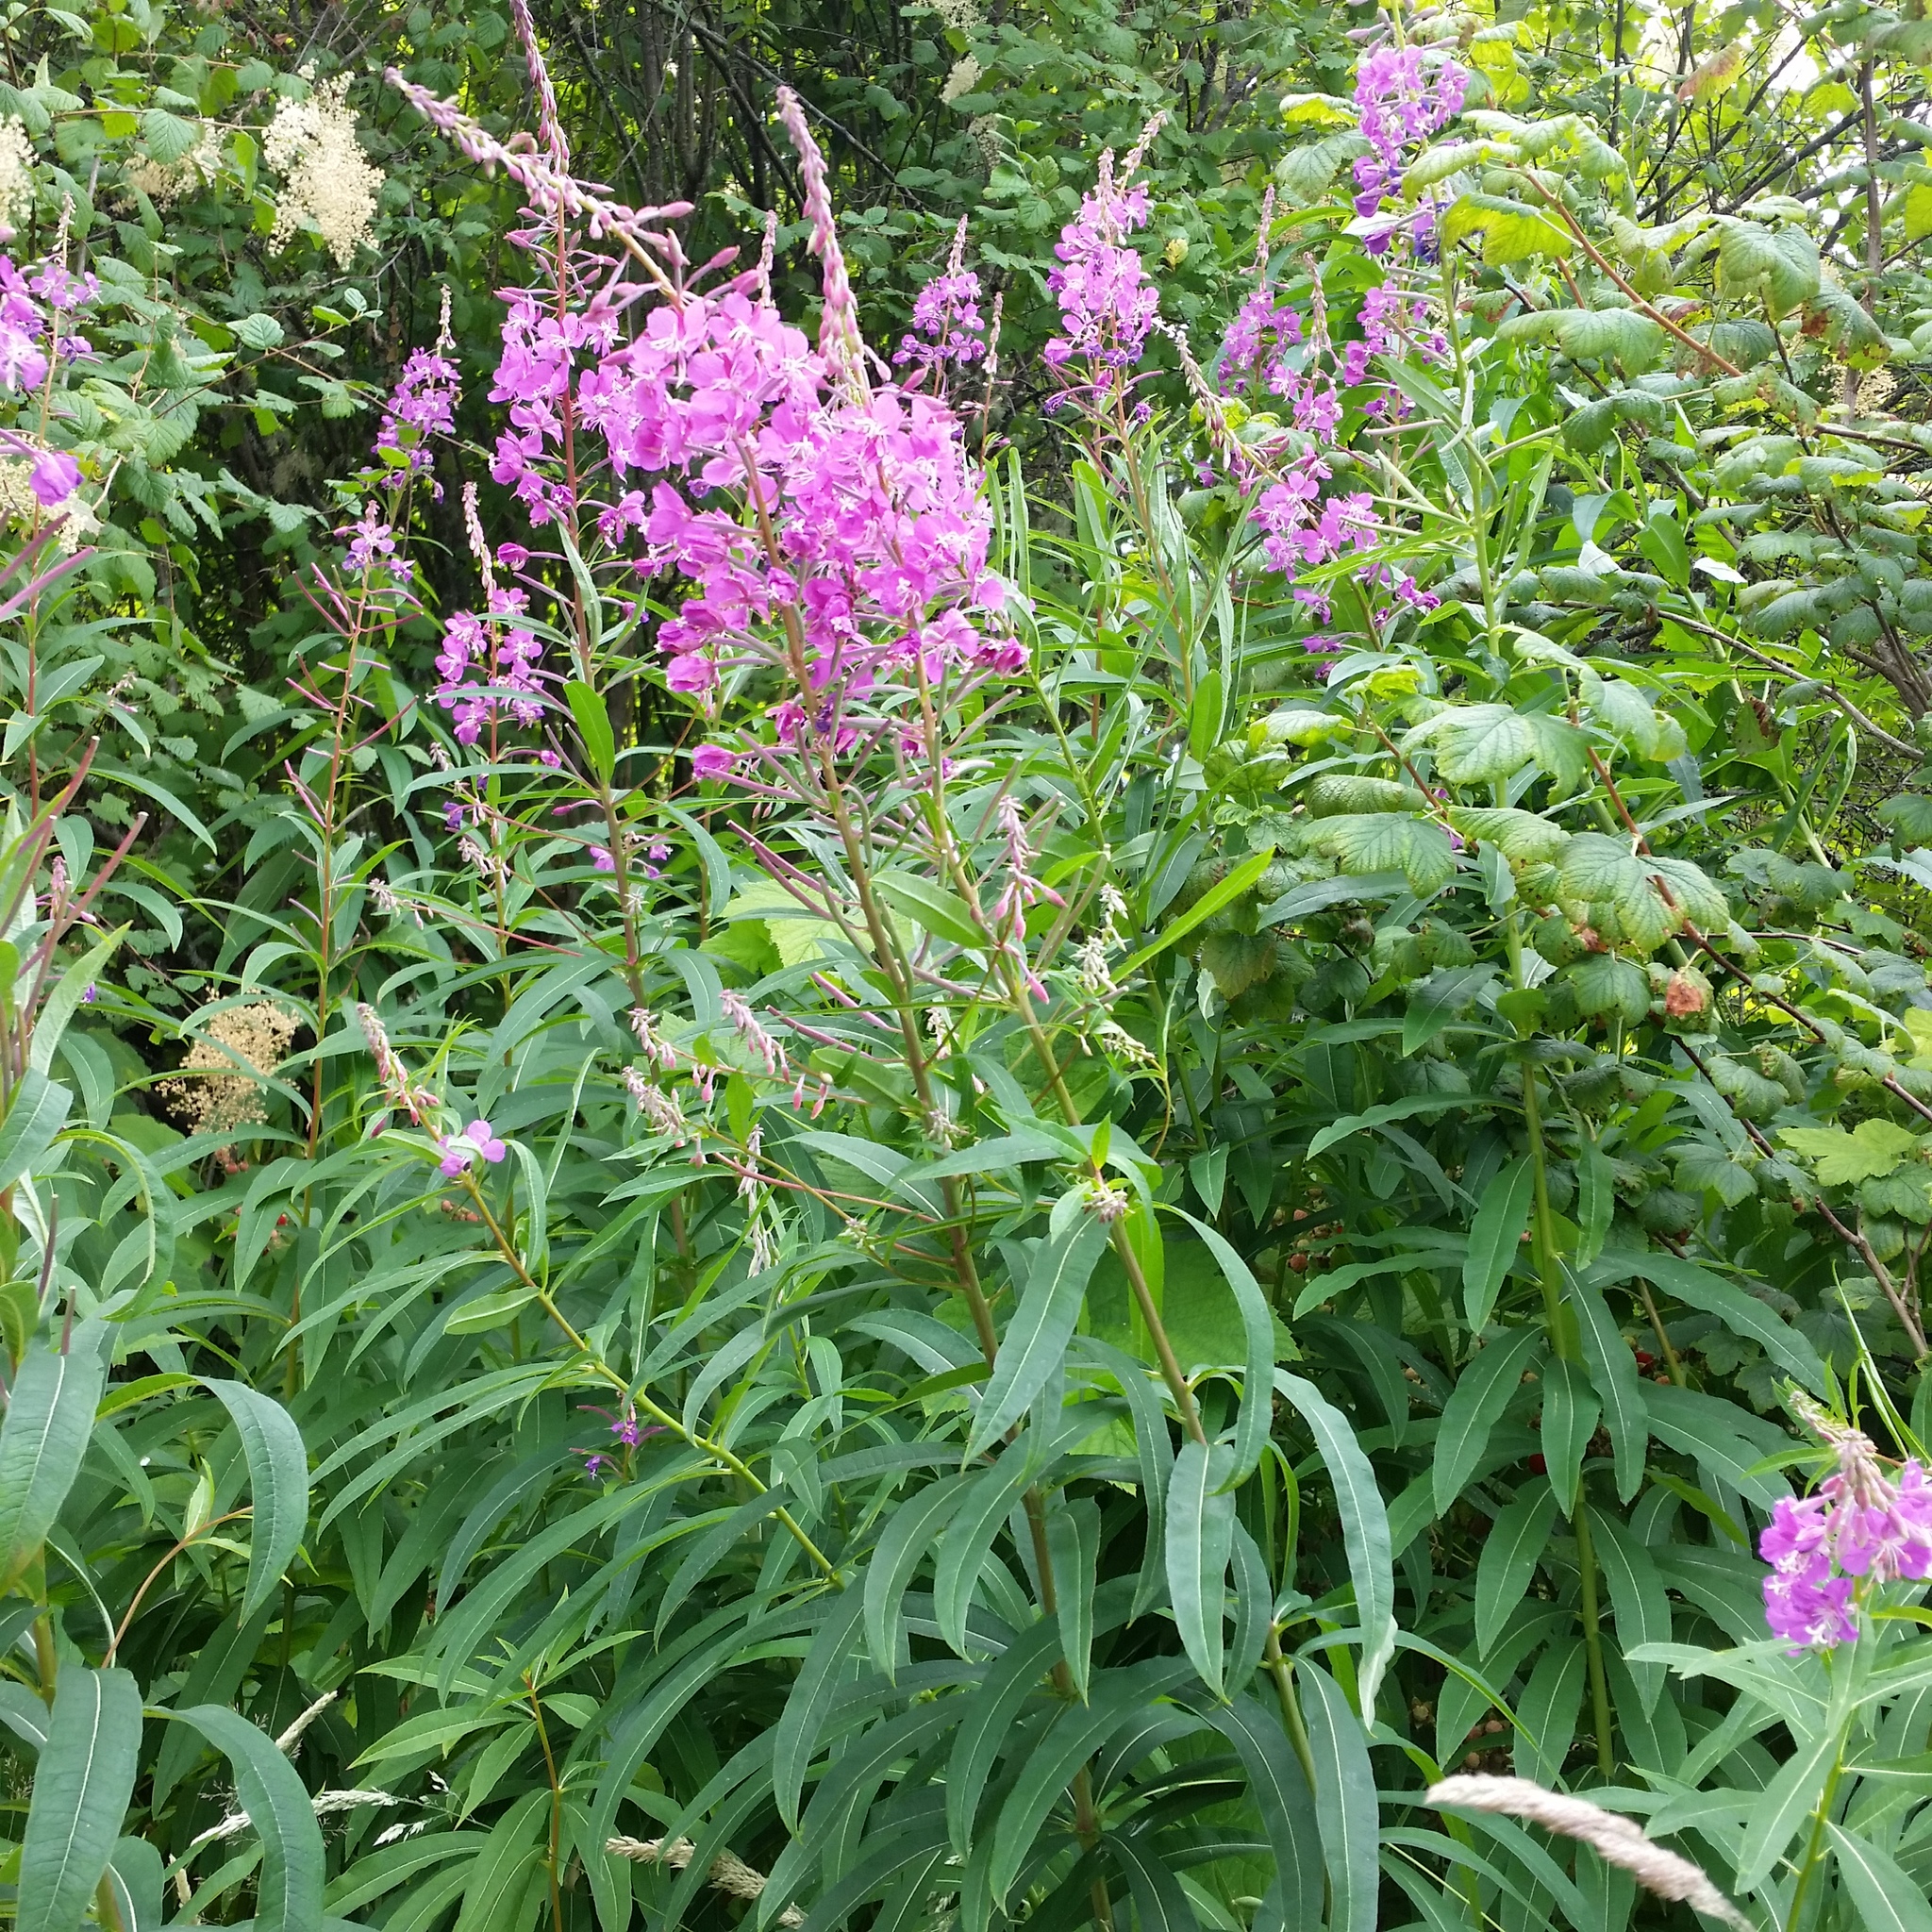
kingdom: Plantae
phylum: Tracheophyta
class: Magnoliopsida
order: Myrtales
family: Onagraceae
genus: Chamaenerion
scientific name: Chamaenerion angustifolium
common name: Fireweed
